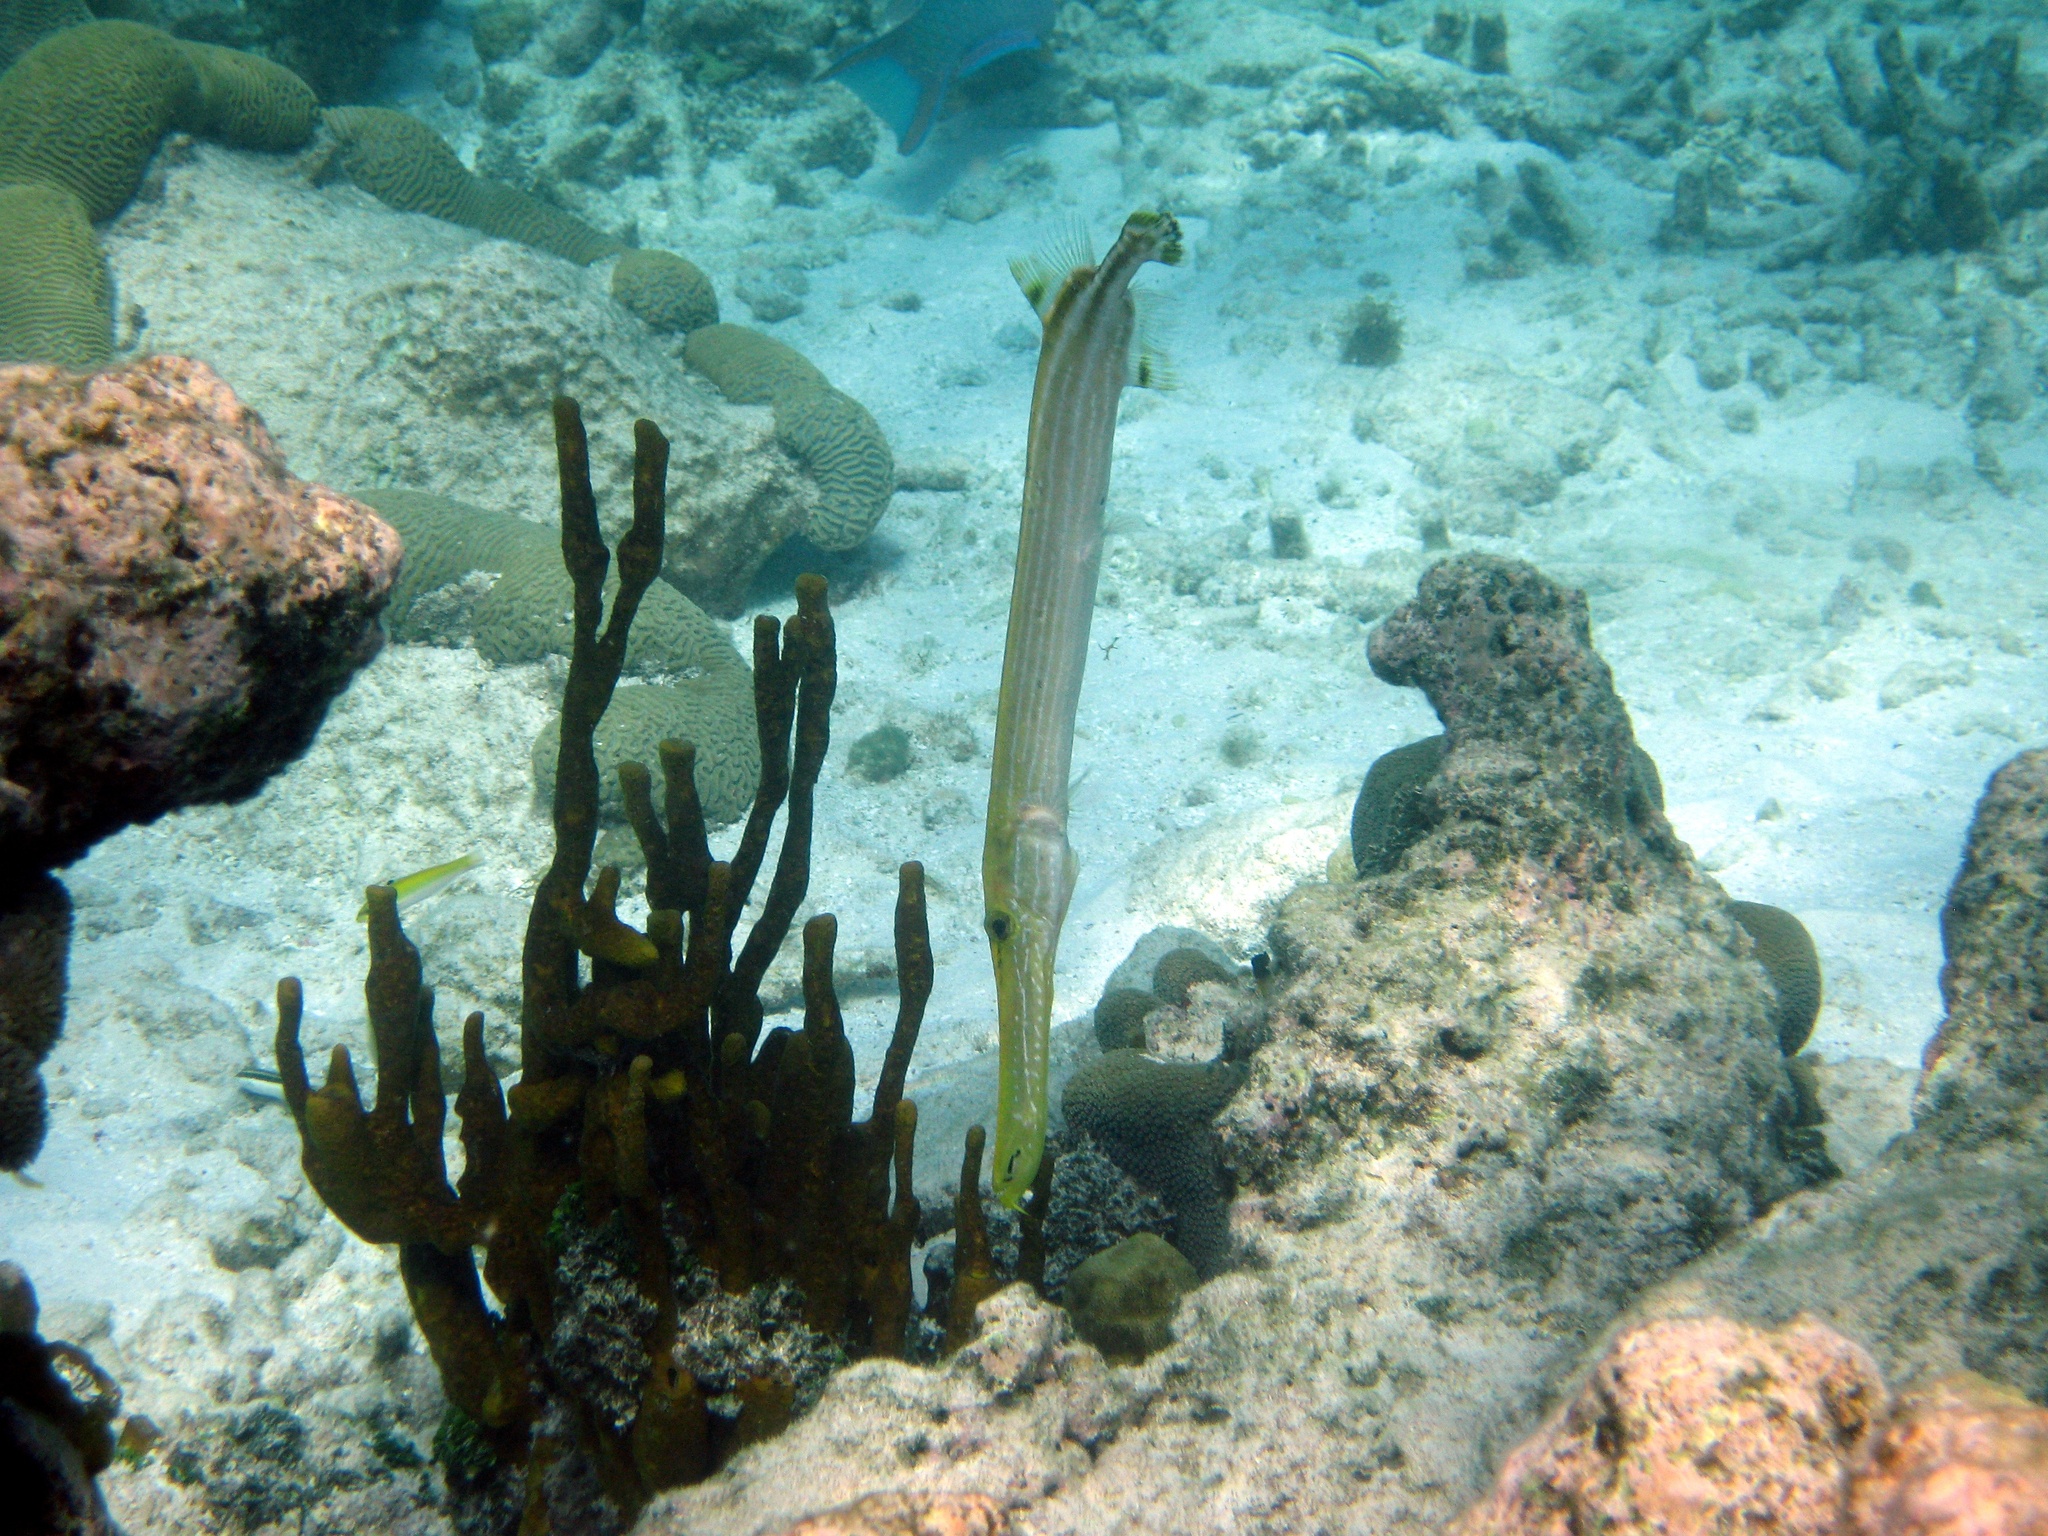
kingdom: Animalia
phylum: Chordata
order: Syngnathiformes
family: Aulostomidae
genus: Aulostomus
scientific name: Aulostomus maculatus
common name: West atlantic trumpetfish
